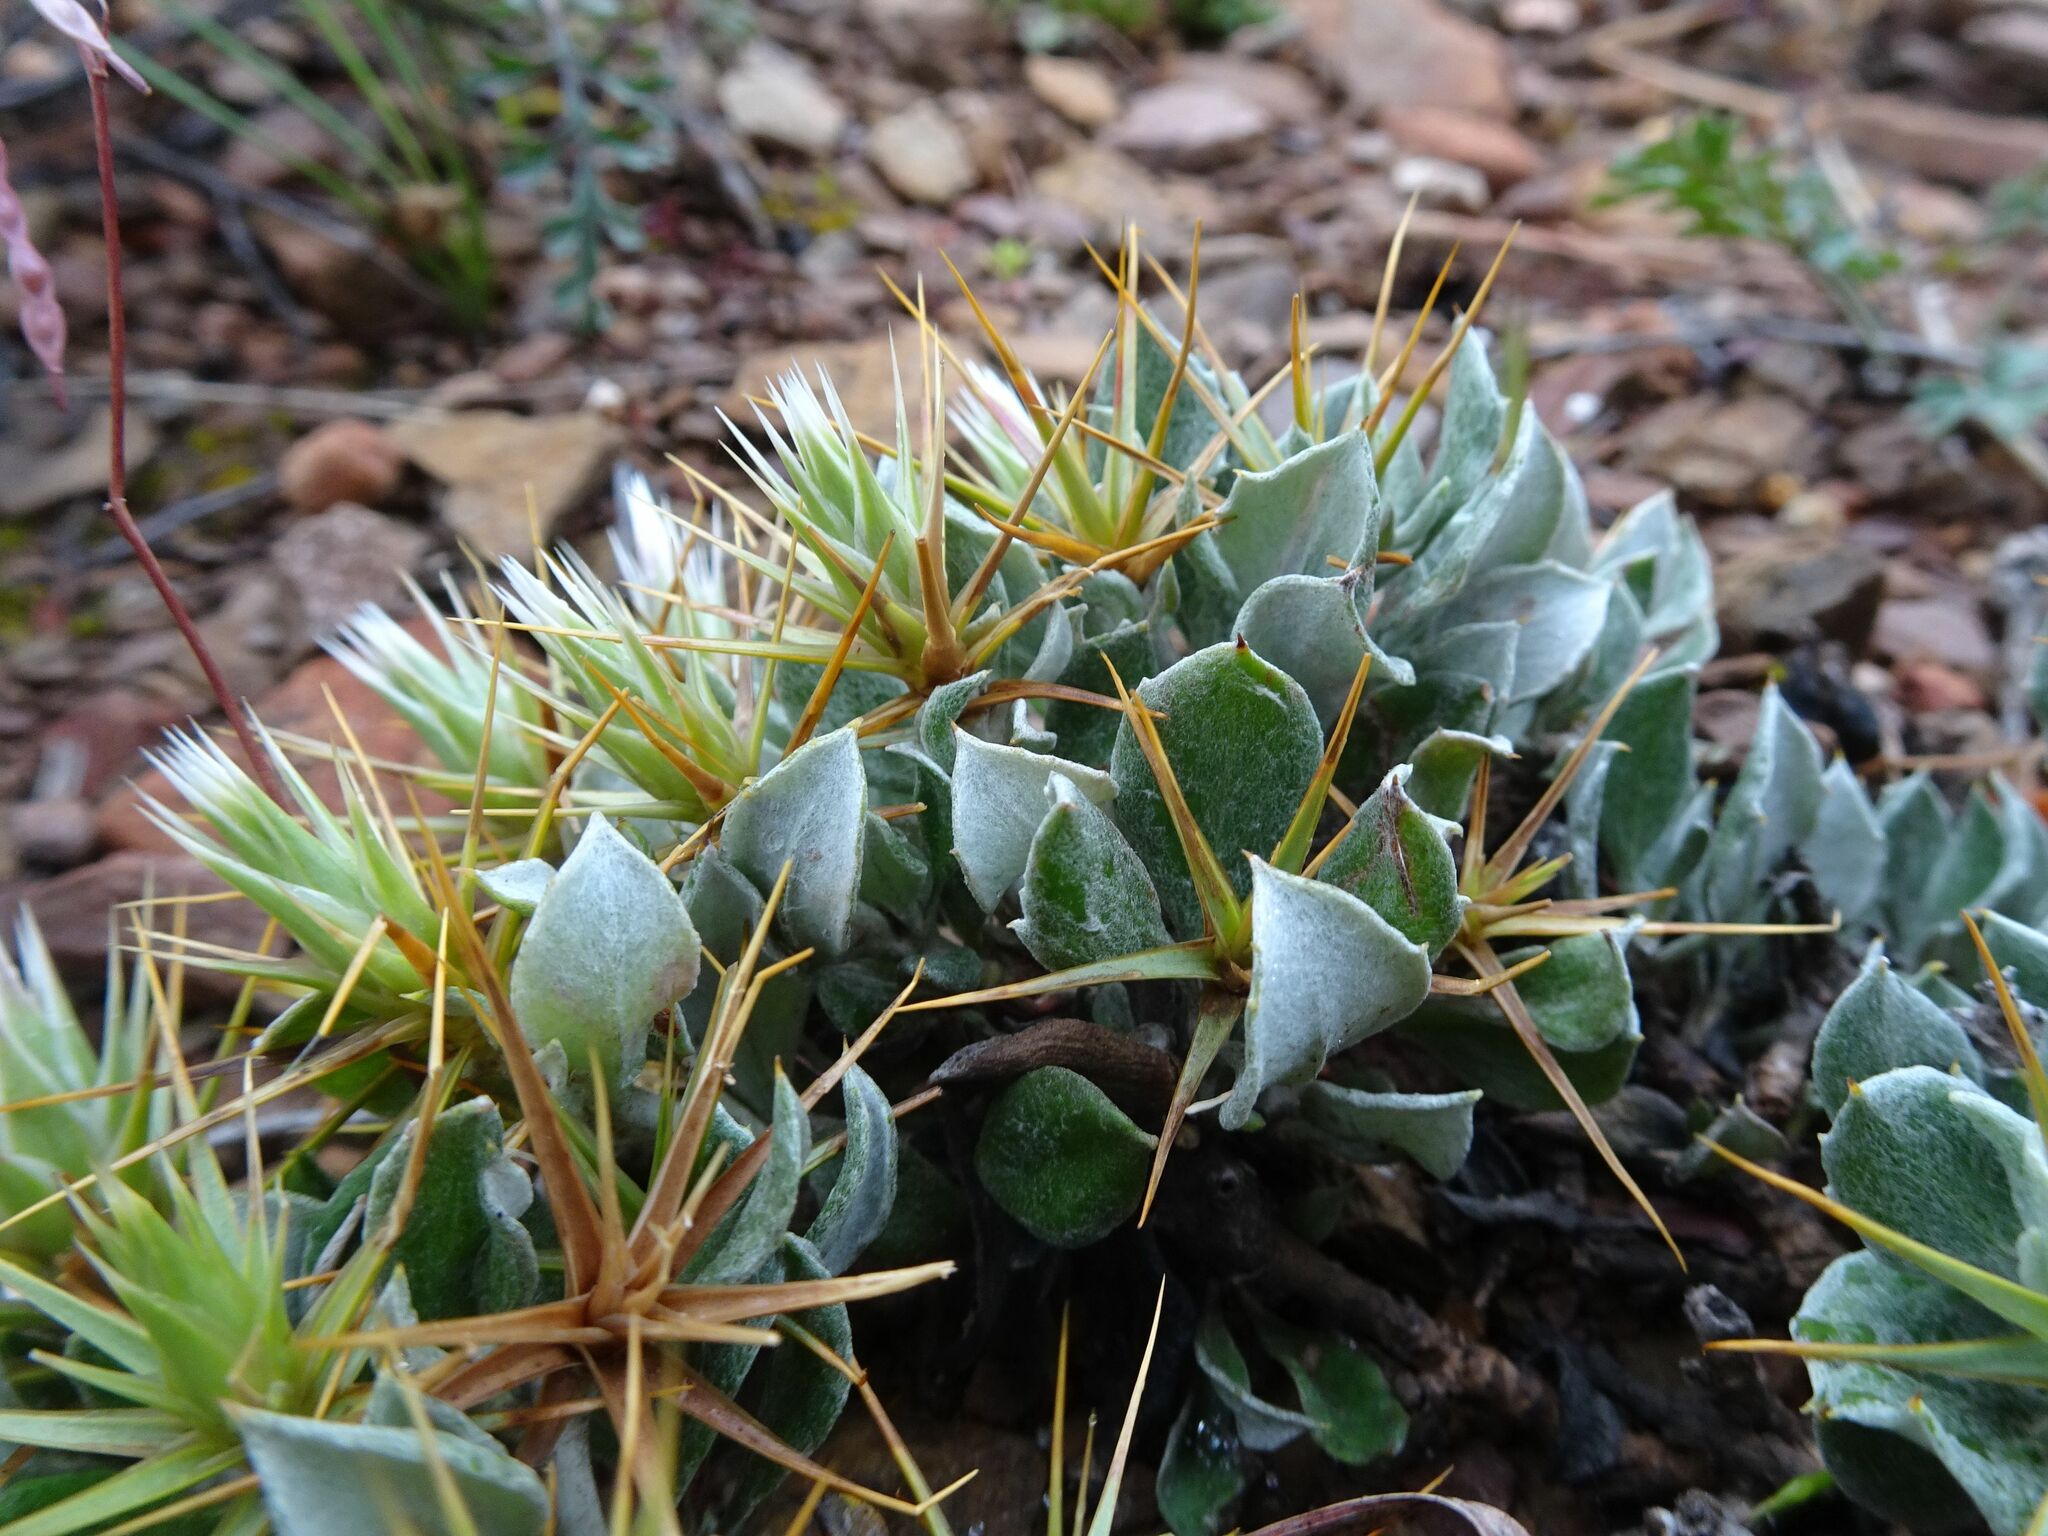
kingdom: Plantae
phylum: Tracheophyta
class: Magnoliopsida
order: Asterales
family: Asteraceae
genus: Macledium
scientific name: Macledium spinosum
